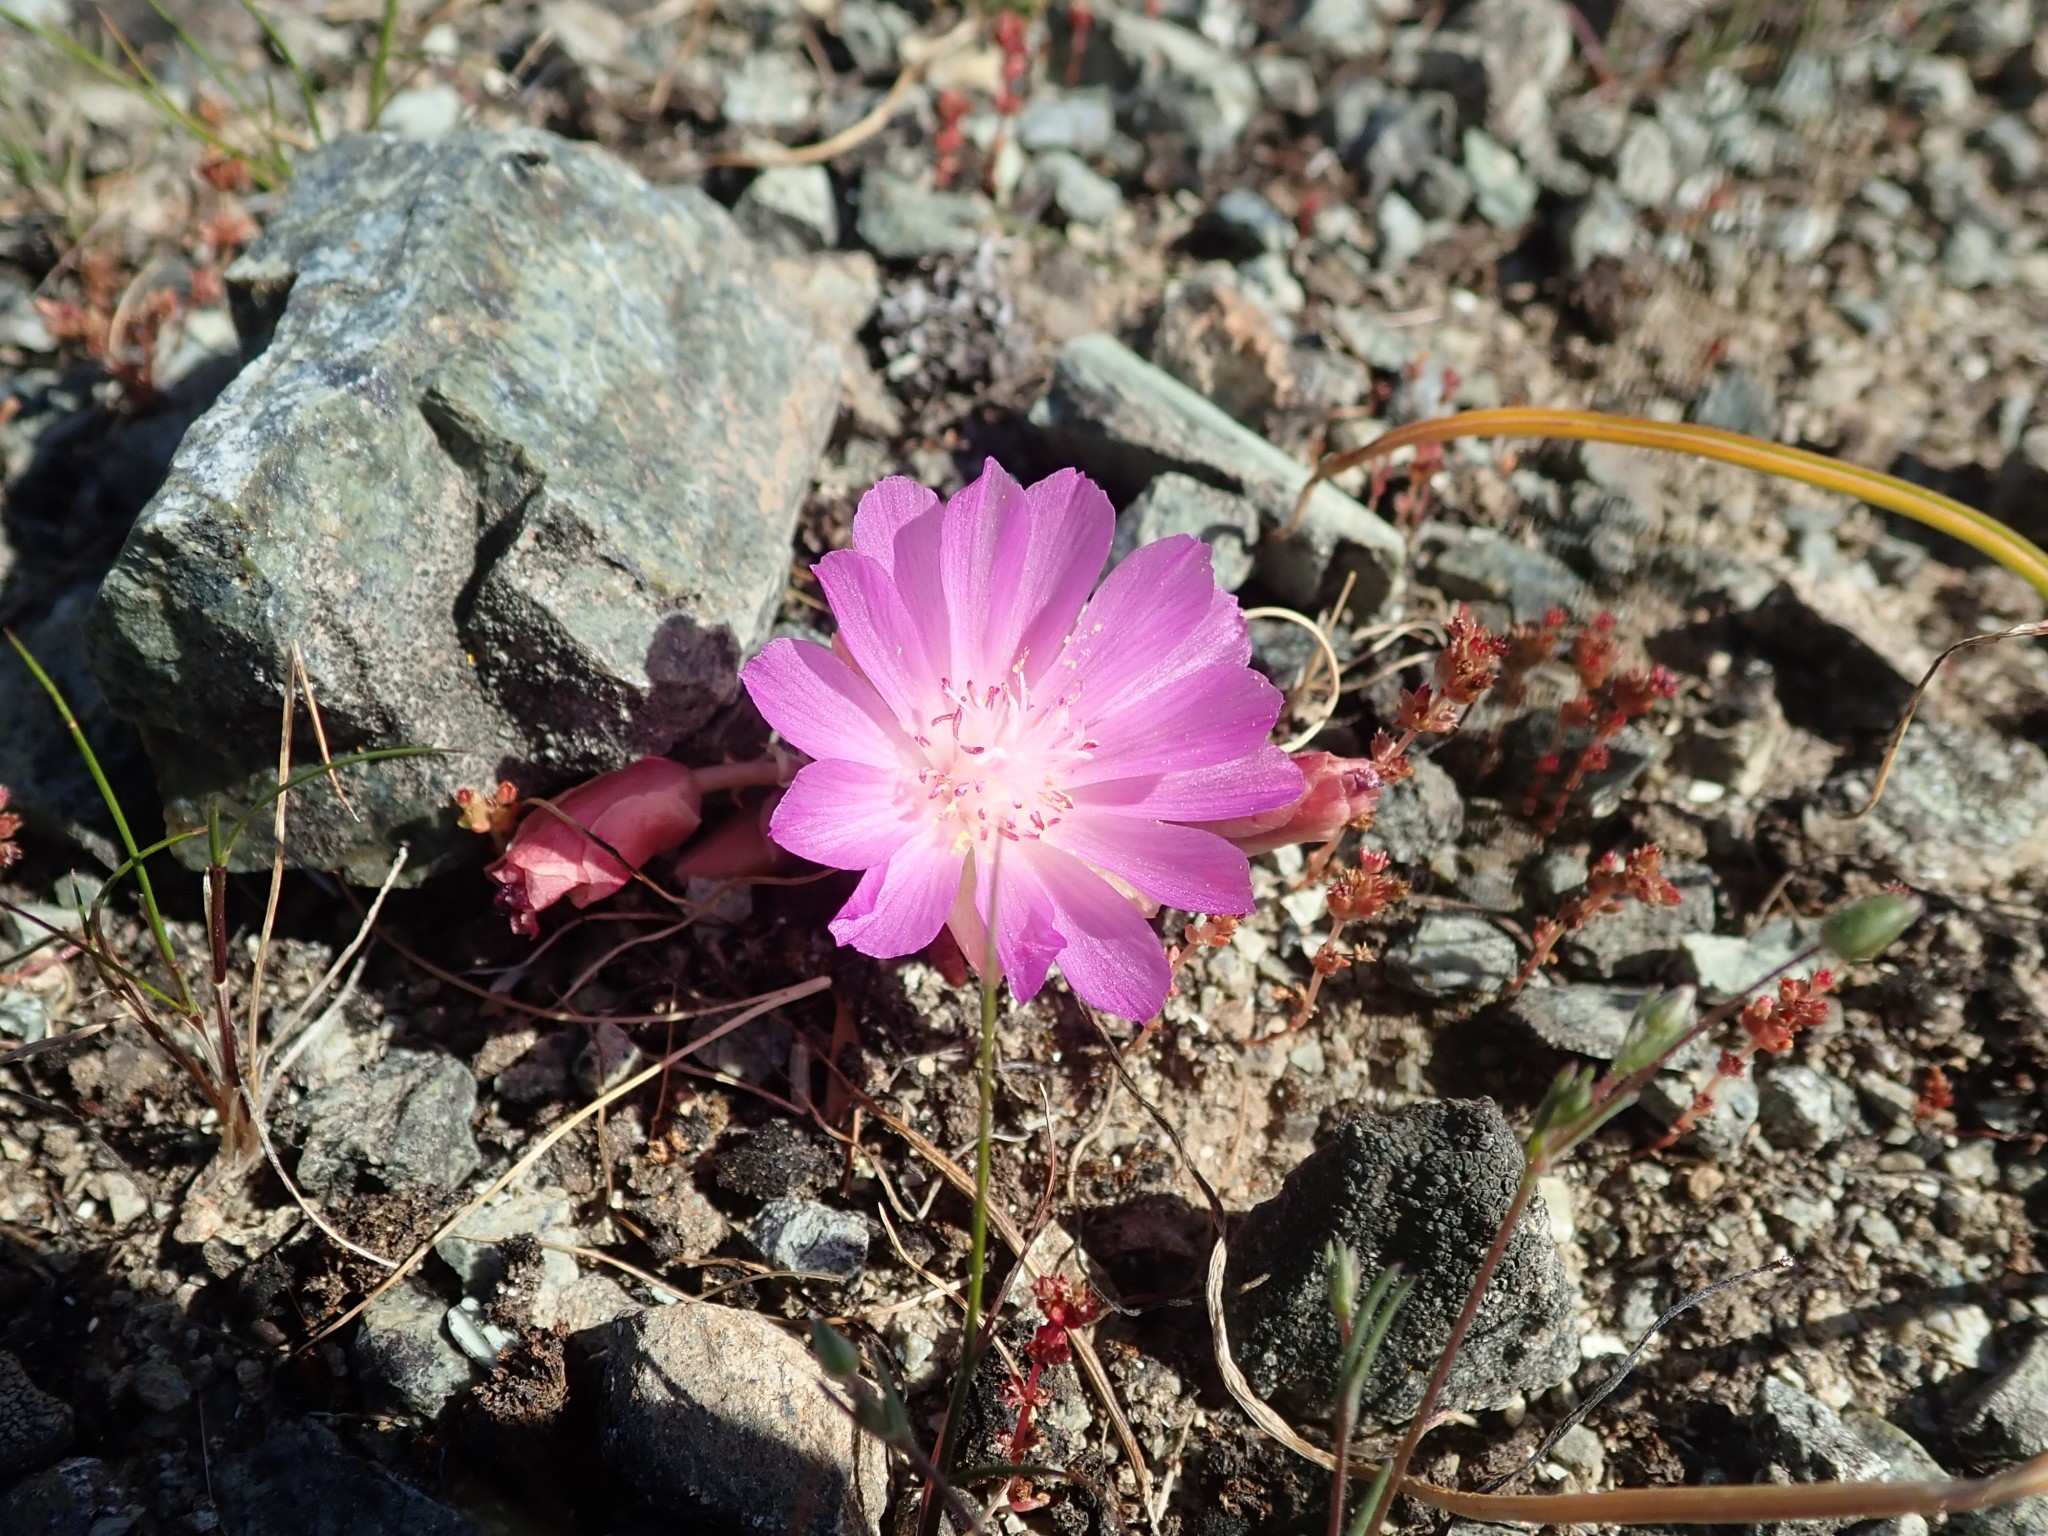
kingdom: Plantae
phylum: Tracheophyta
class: Magnoliopsida
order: Caryophyllales
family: Montiaceae
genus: Lewisia
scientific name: Lewisia rediviva
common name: Bitter-root
